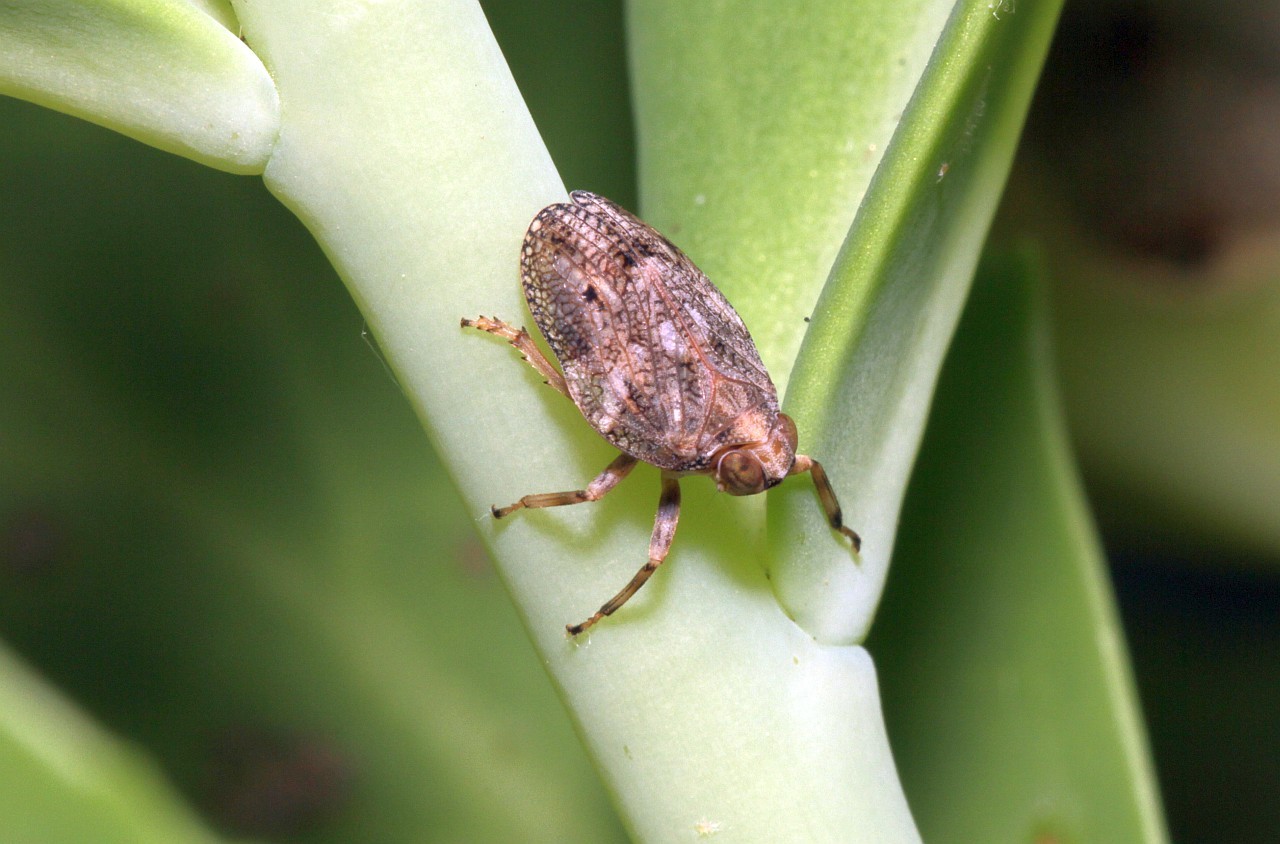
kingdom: Animalia
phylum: Arthropoda
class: Insecta
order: Hemiptera
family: Issidae
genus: Issus
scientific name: Issus coleoptratus
